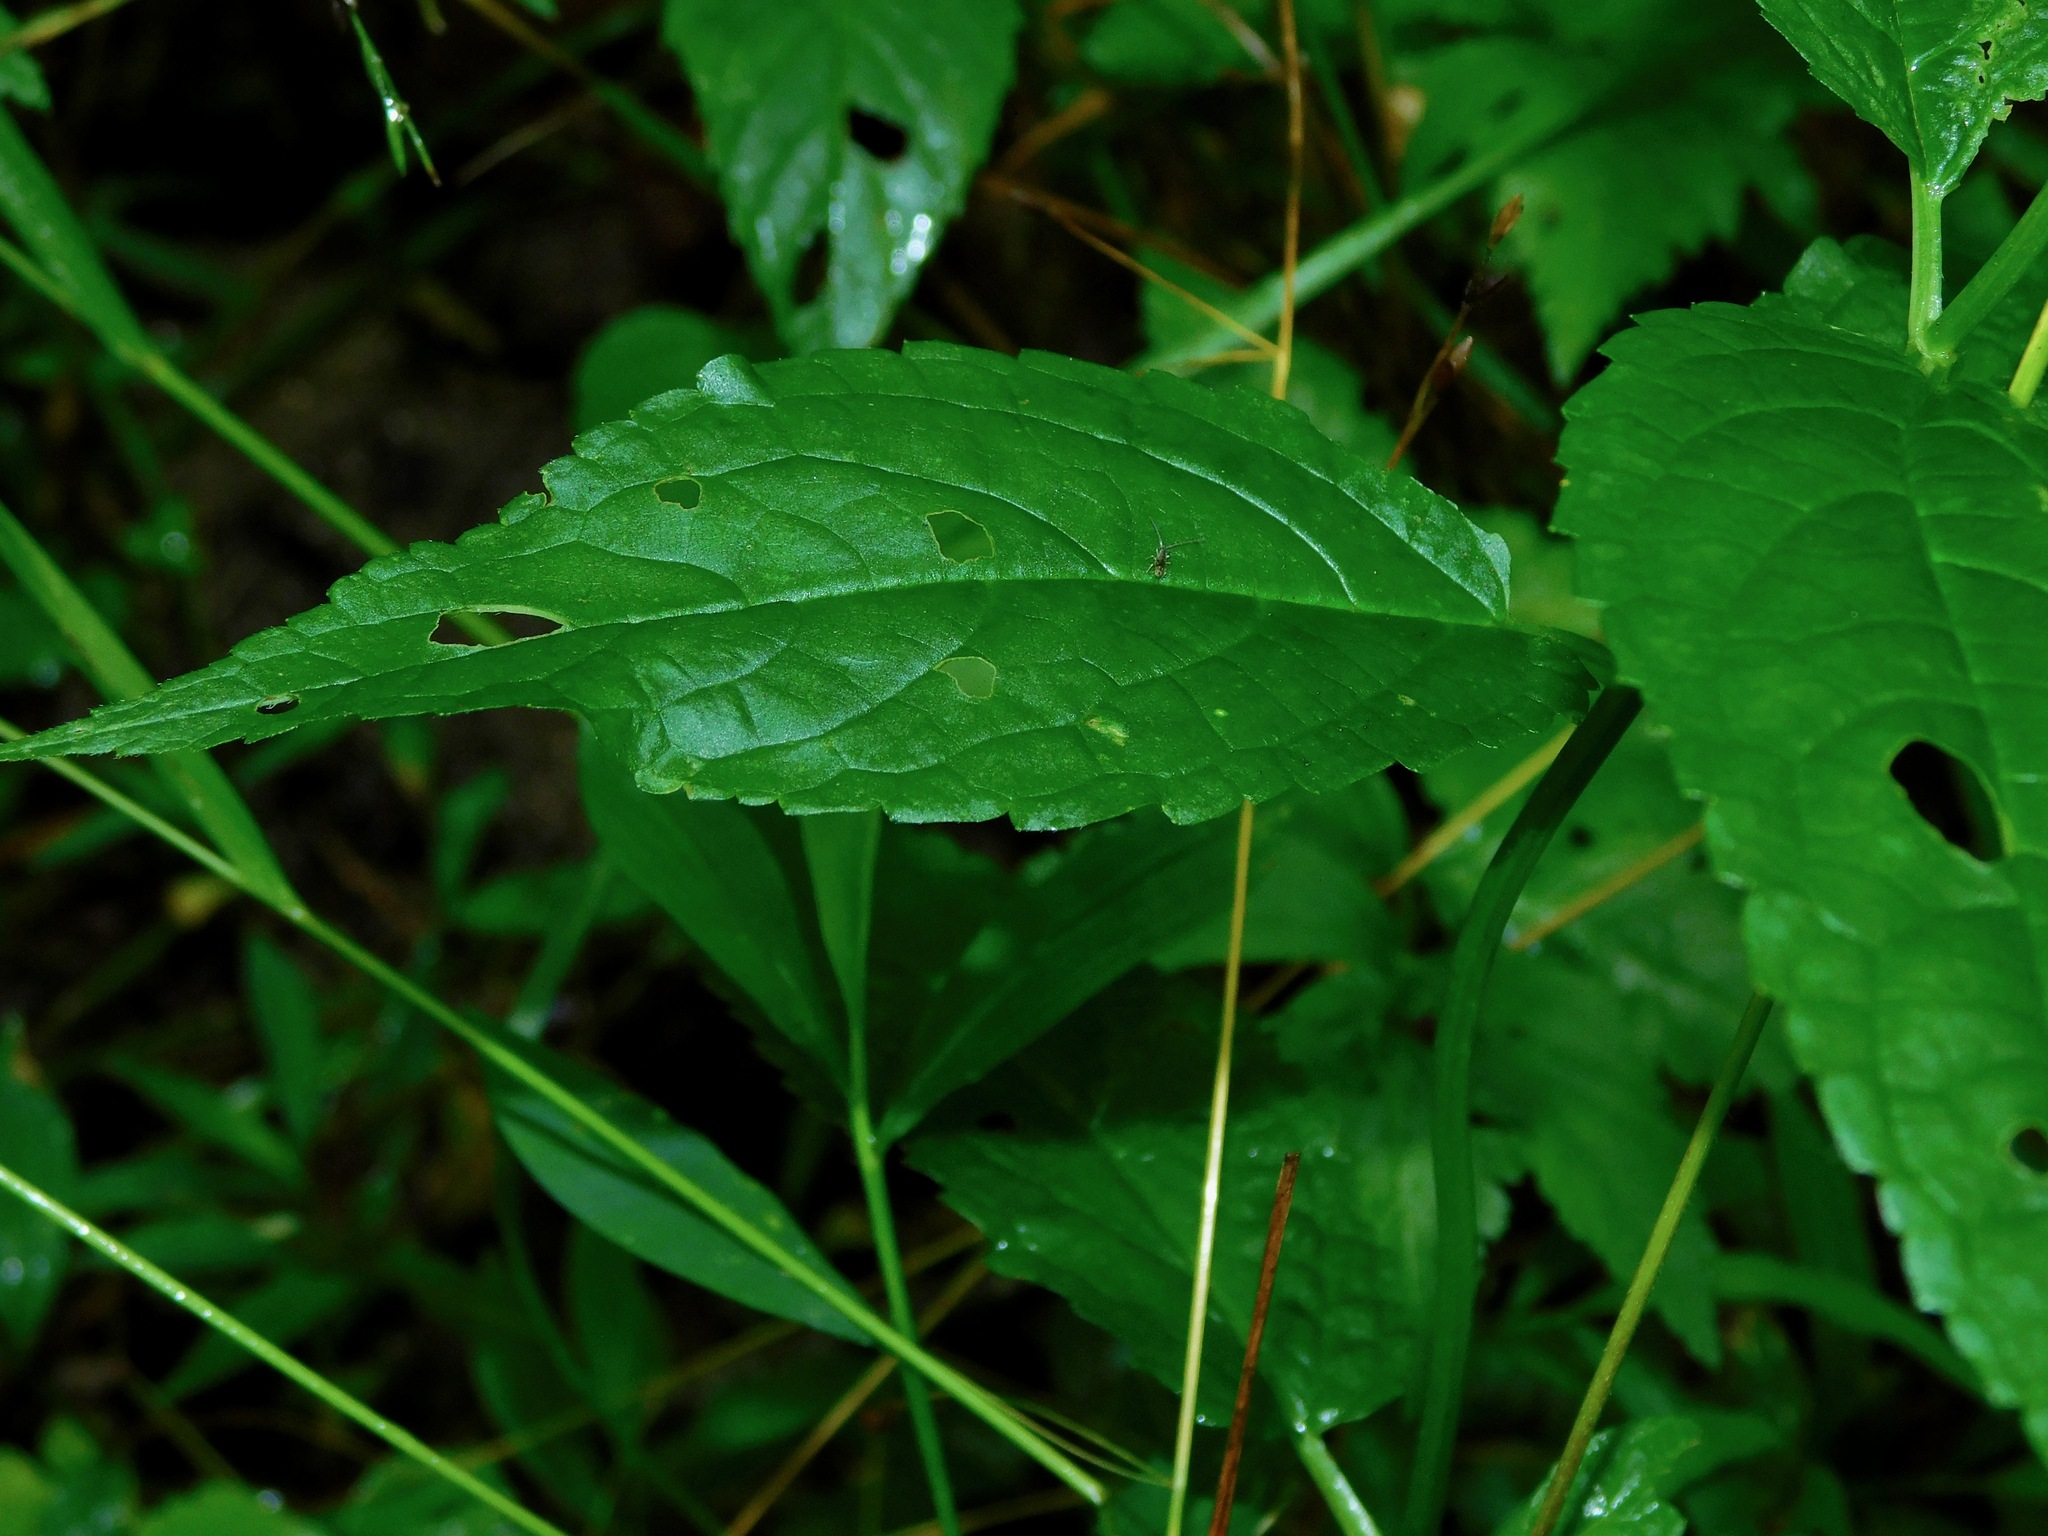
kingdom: Plantae
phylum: Tracheophyta
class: Magnoliopsida
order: Lamiales
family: Lamiaceae
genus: Stachys
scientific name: Stachys latidens
